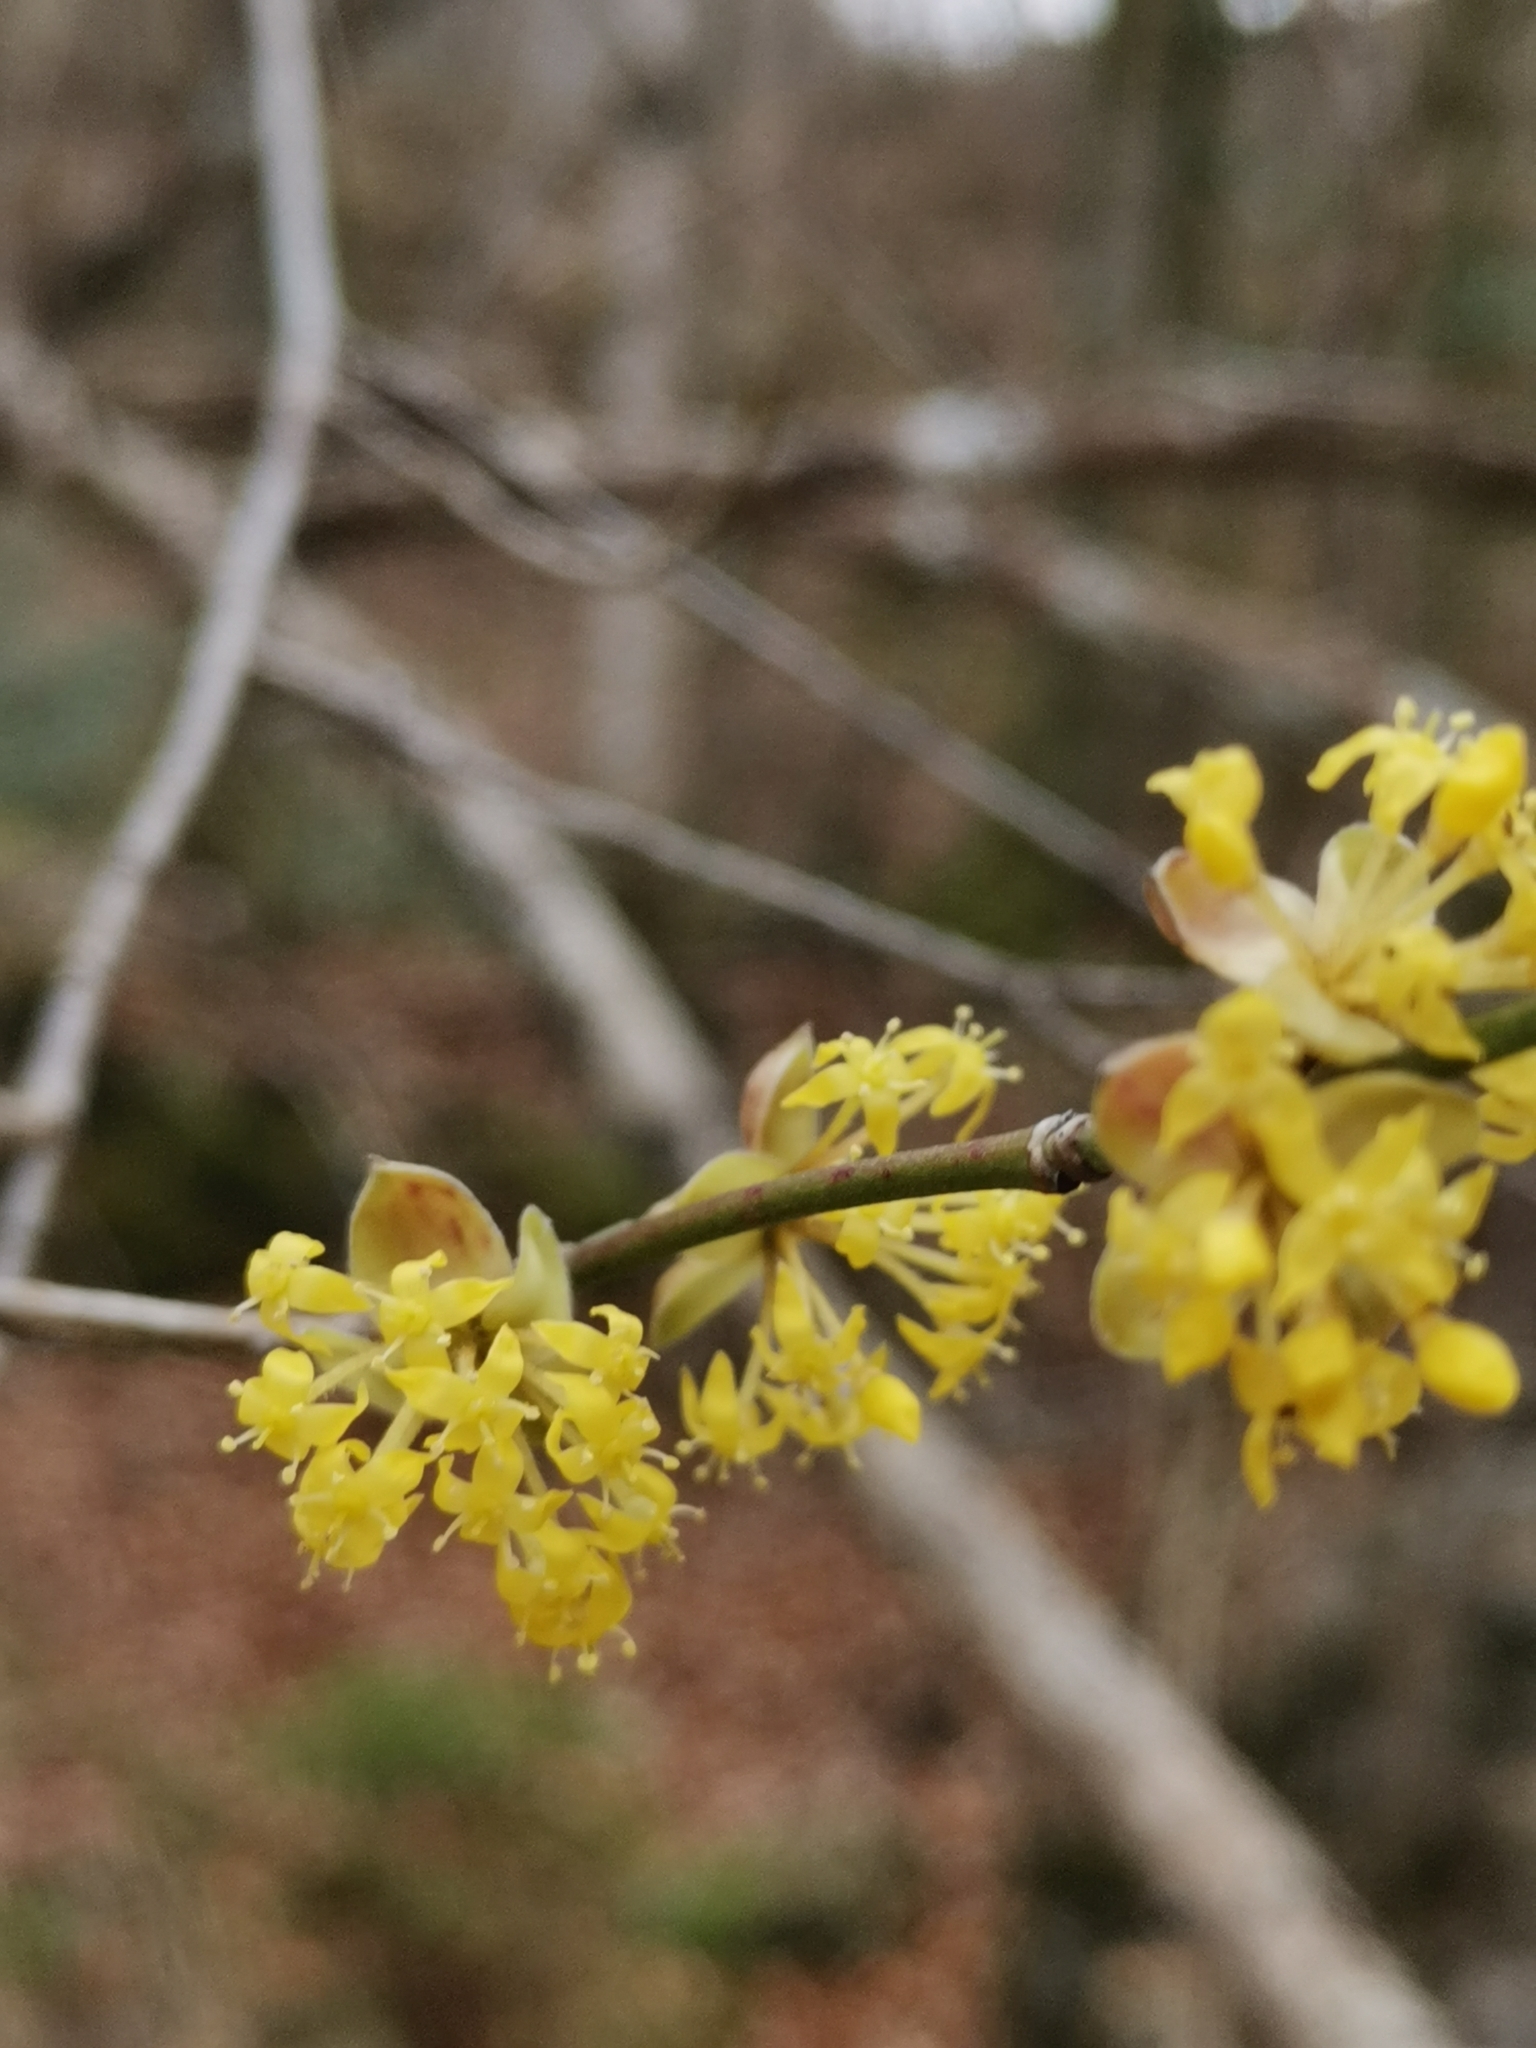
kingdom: Plantae
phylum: Tracheophyta
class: Magnoliopsida
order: Cornales
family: Cornaceae
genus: Cornus
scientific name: Cornus mas
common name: Cornelian-cherry
